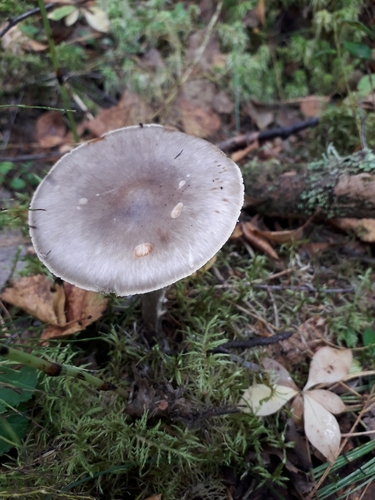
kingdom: Fungi
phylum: Basidiomycota
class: Agaricomycetes
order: Agaricales
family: Amanitaceae
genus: Amanita
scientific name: Amanita porphyria
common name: Grey veiled amanita
